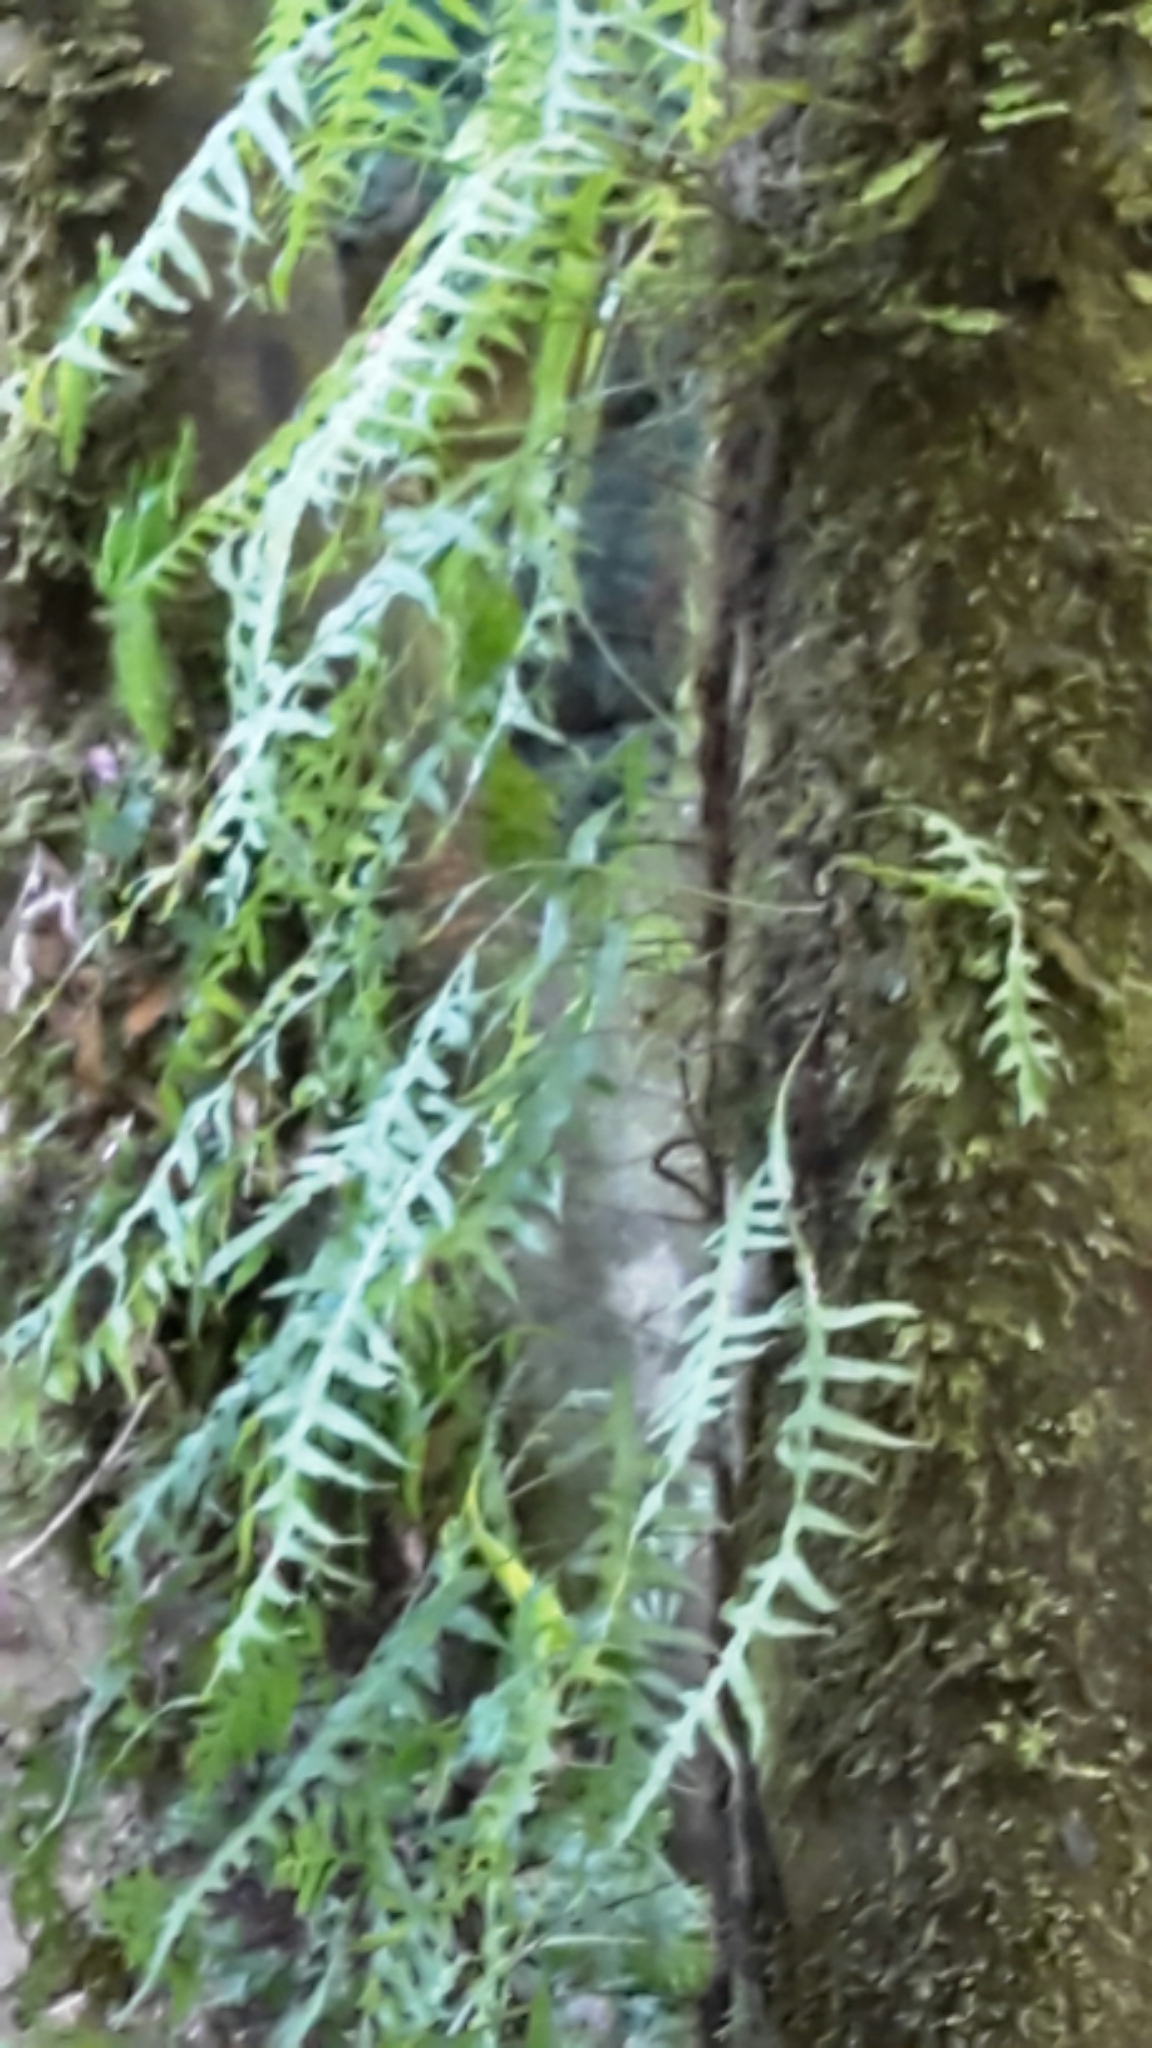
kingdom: Plantae
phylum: Tracheophyta
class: Polypodiopsida
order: Polypodiales
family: Polypodiaceae
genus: Lecanopteris
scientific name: Lecanopteris scandens
